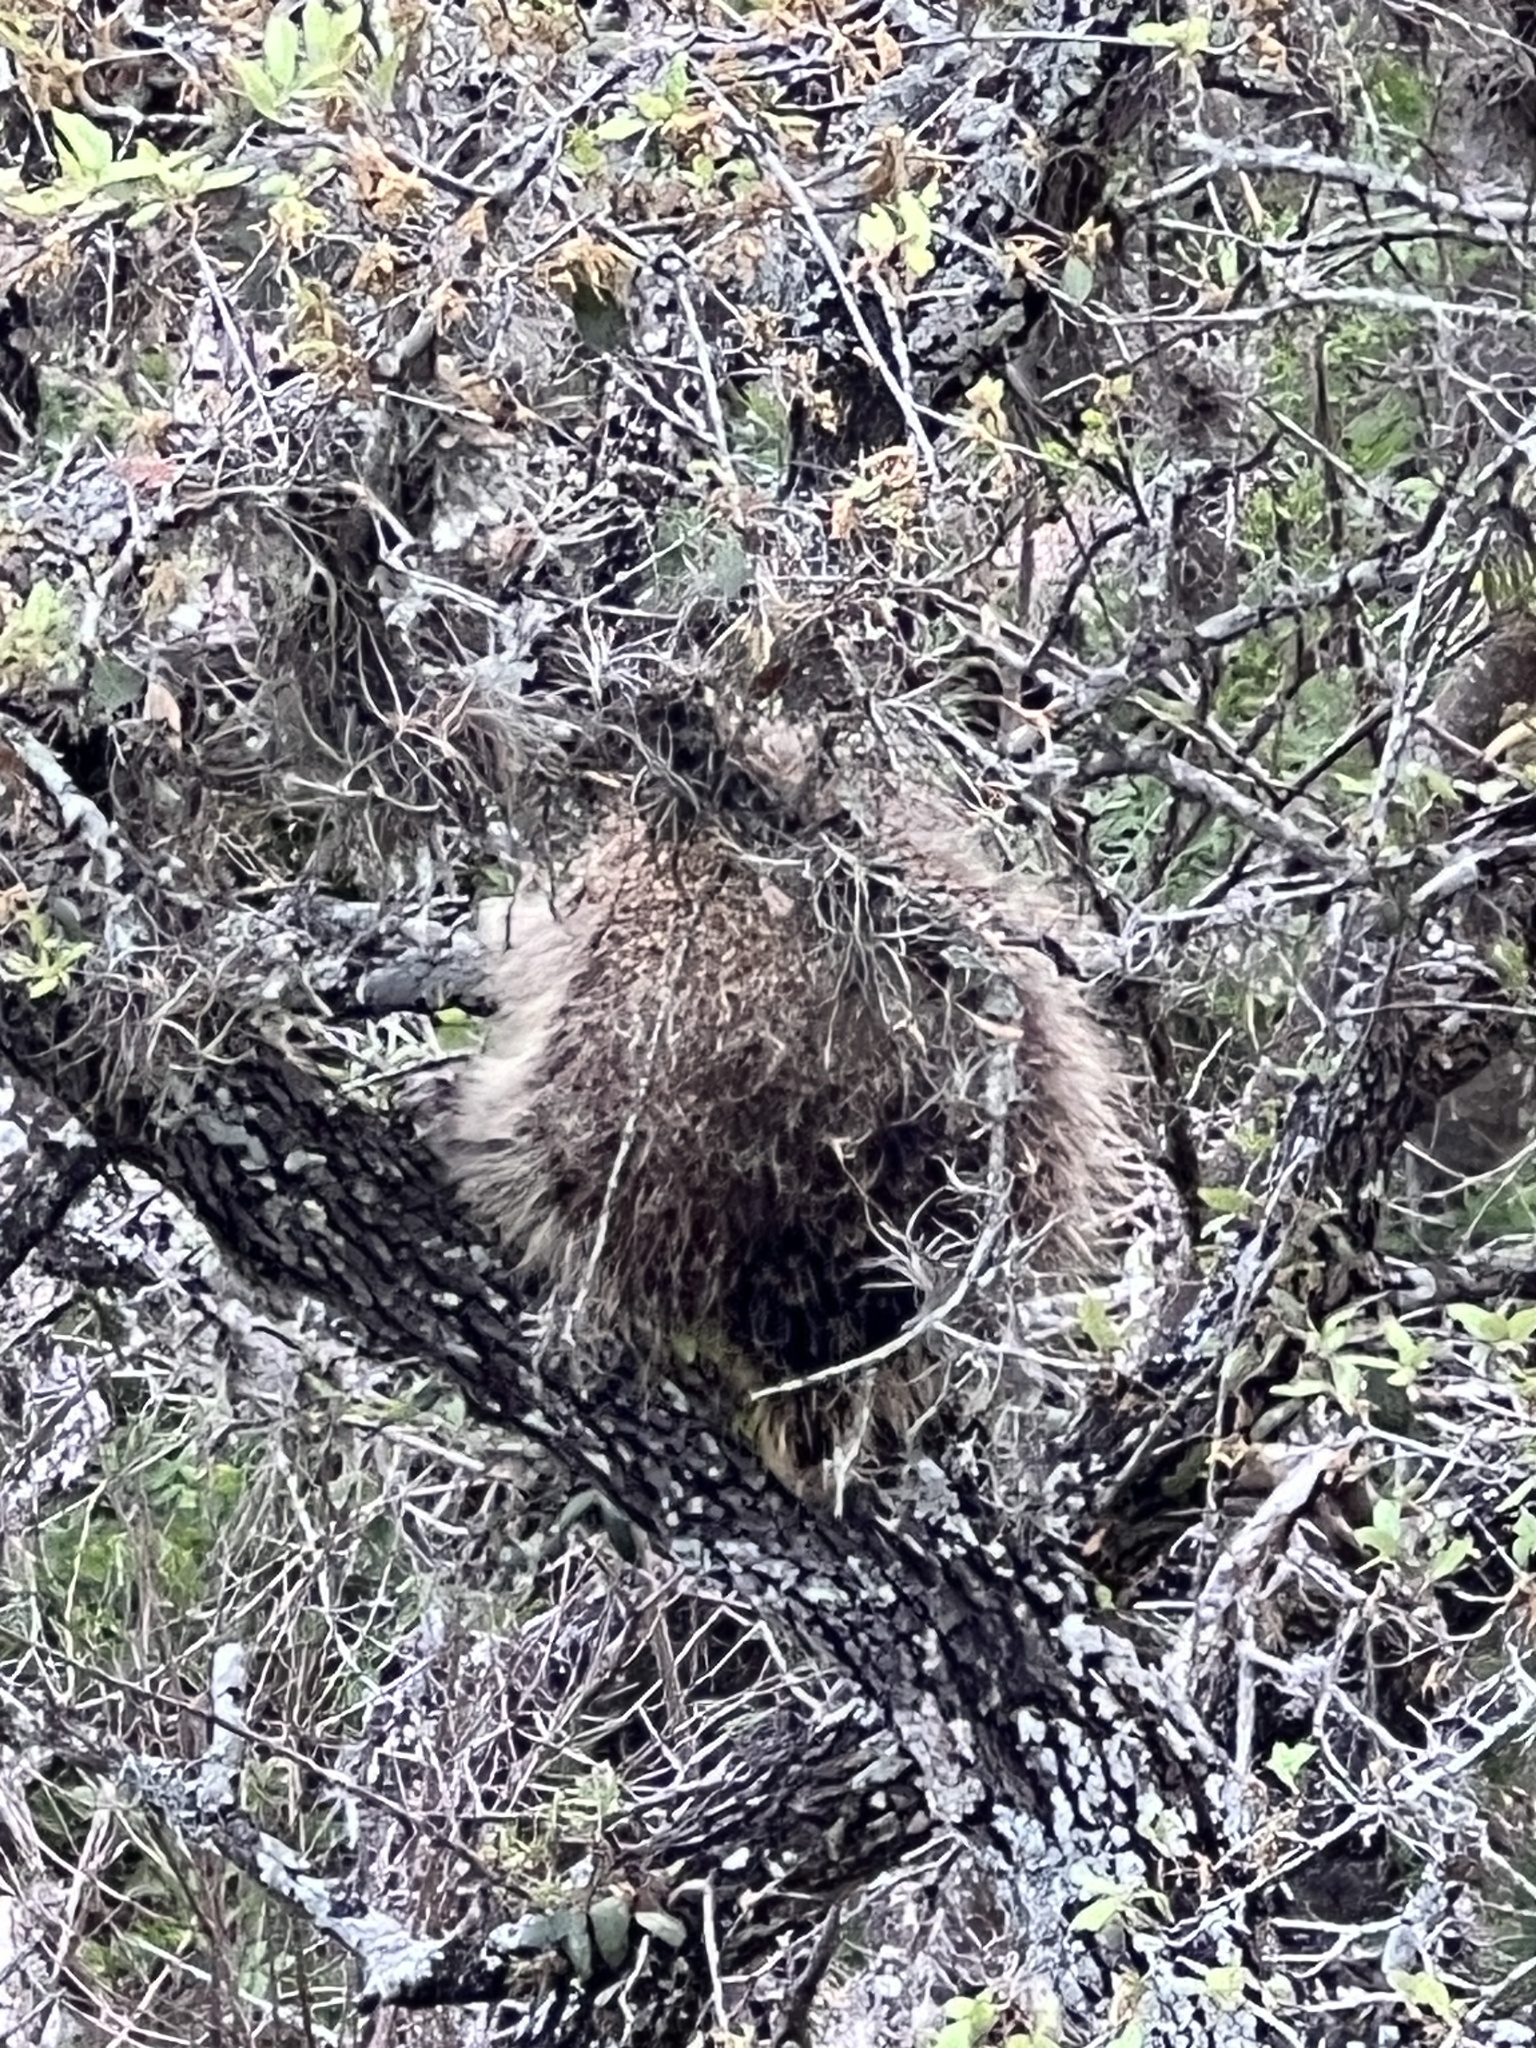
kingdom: Animalia
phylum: Chordata
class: Mammalia
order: Rodentia
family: Erethizontidae
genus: Erethizon
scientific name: Erethizon dorsatus
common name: North american porcupine
